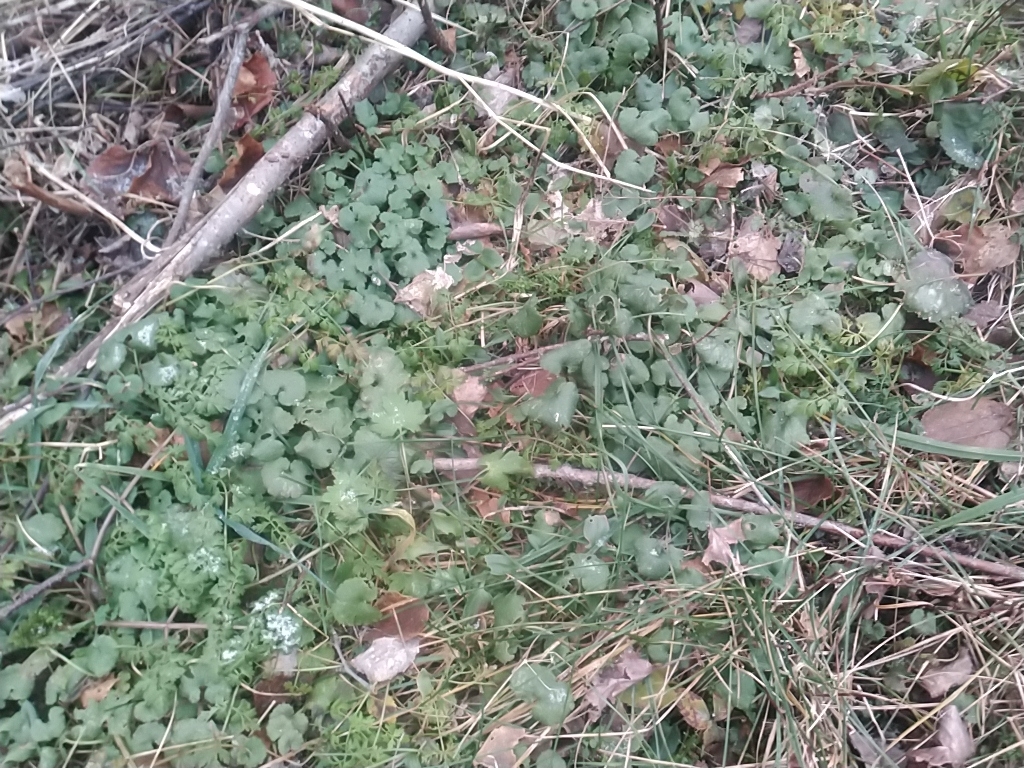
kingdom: Plantae
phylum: Tracheophyta
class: Magnoliopsida
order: Lamiales
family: Lamiaceae
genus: Glechoma
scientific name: Glechoma hederacea
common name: Ground ivy
